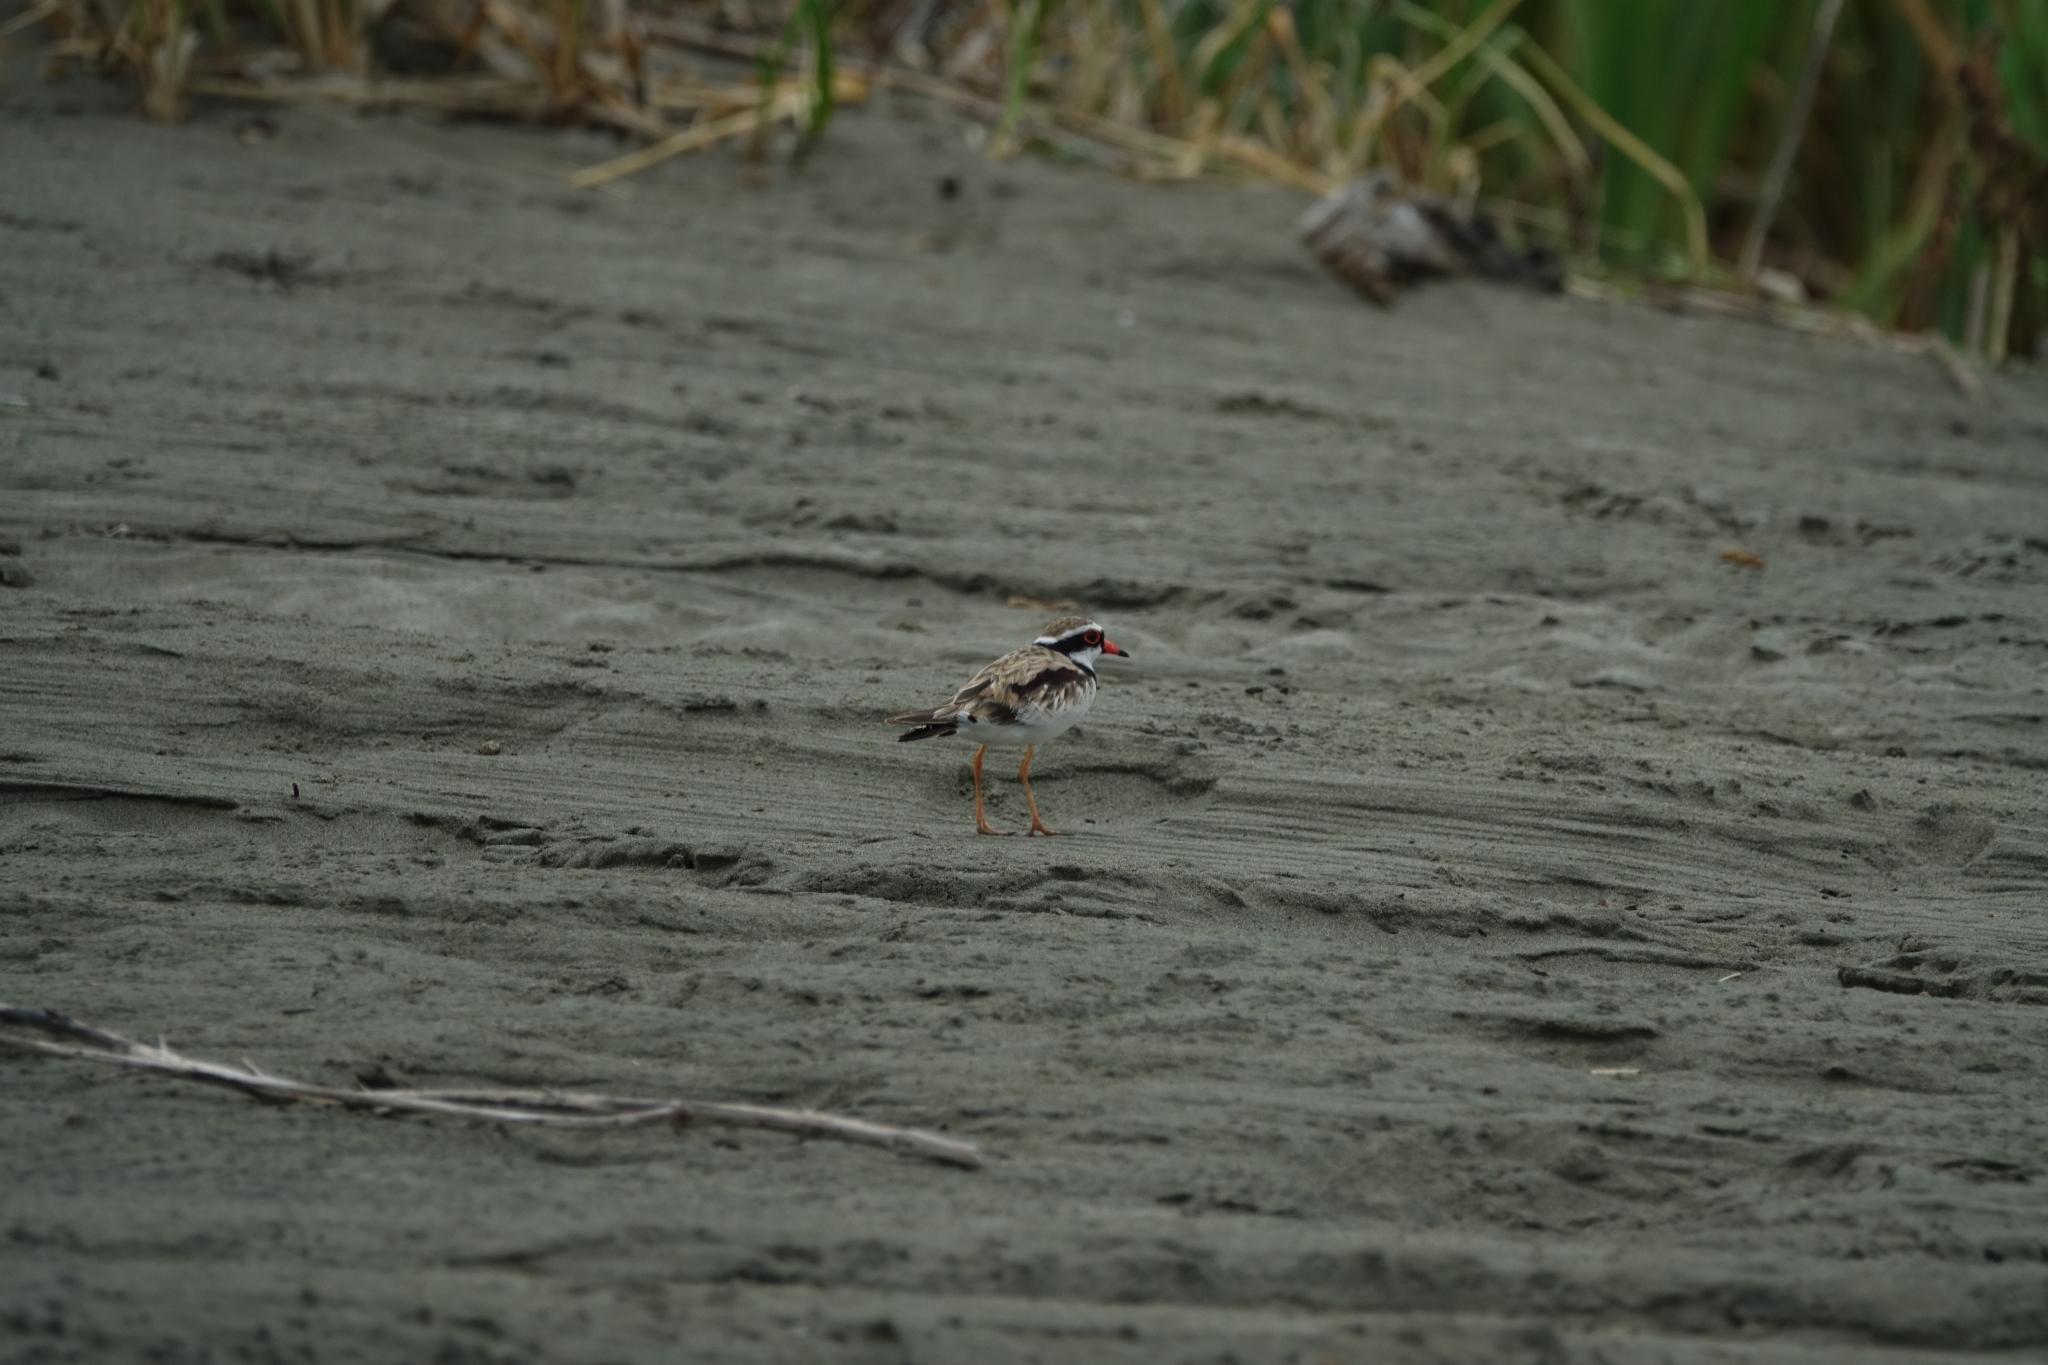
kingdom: Animalia
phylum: Chordata
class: Aves
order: Charadriiformes
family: Charadriidae
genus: Elseyornis
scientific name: Elseyornis melanops
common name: Black-fronted dotterel
